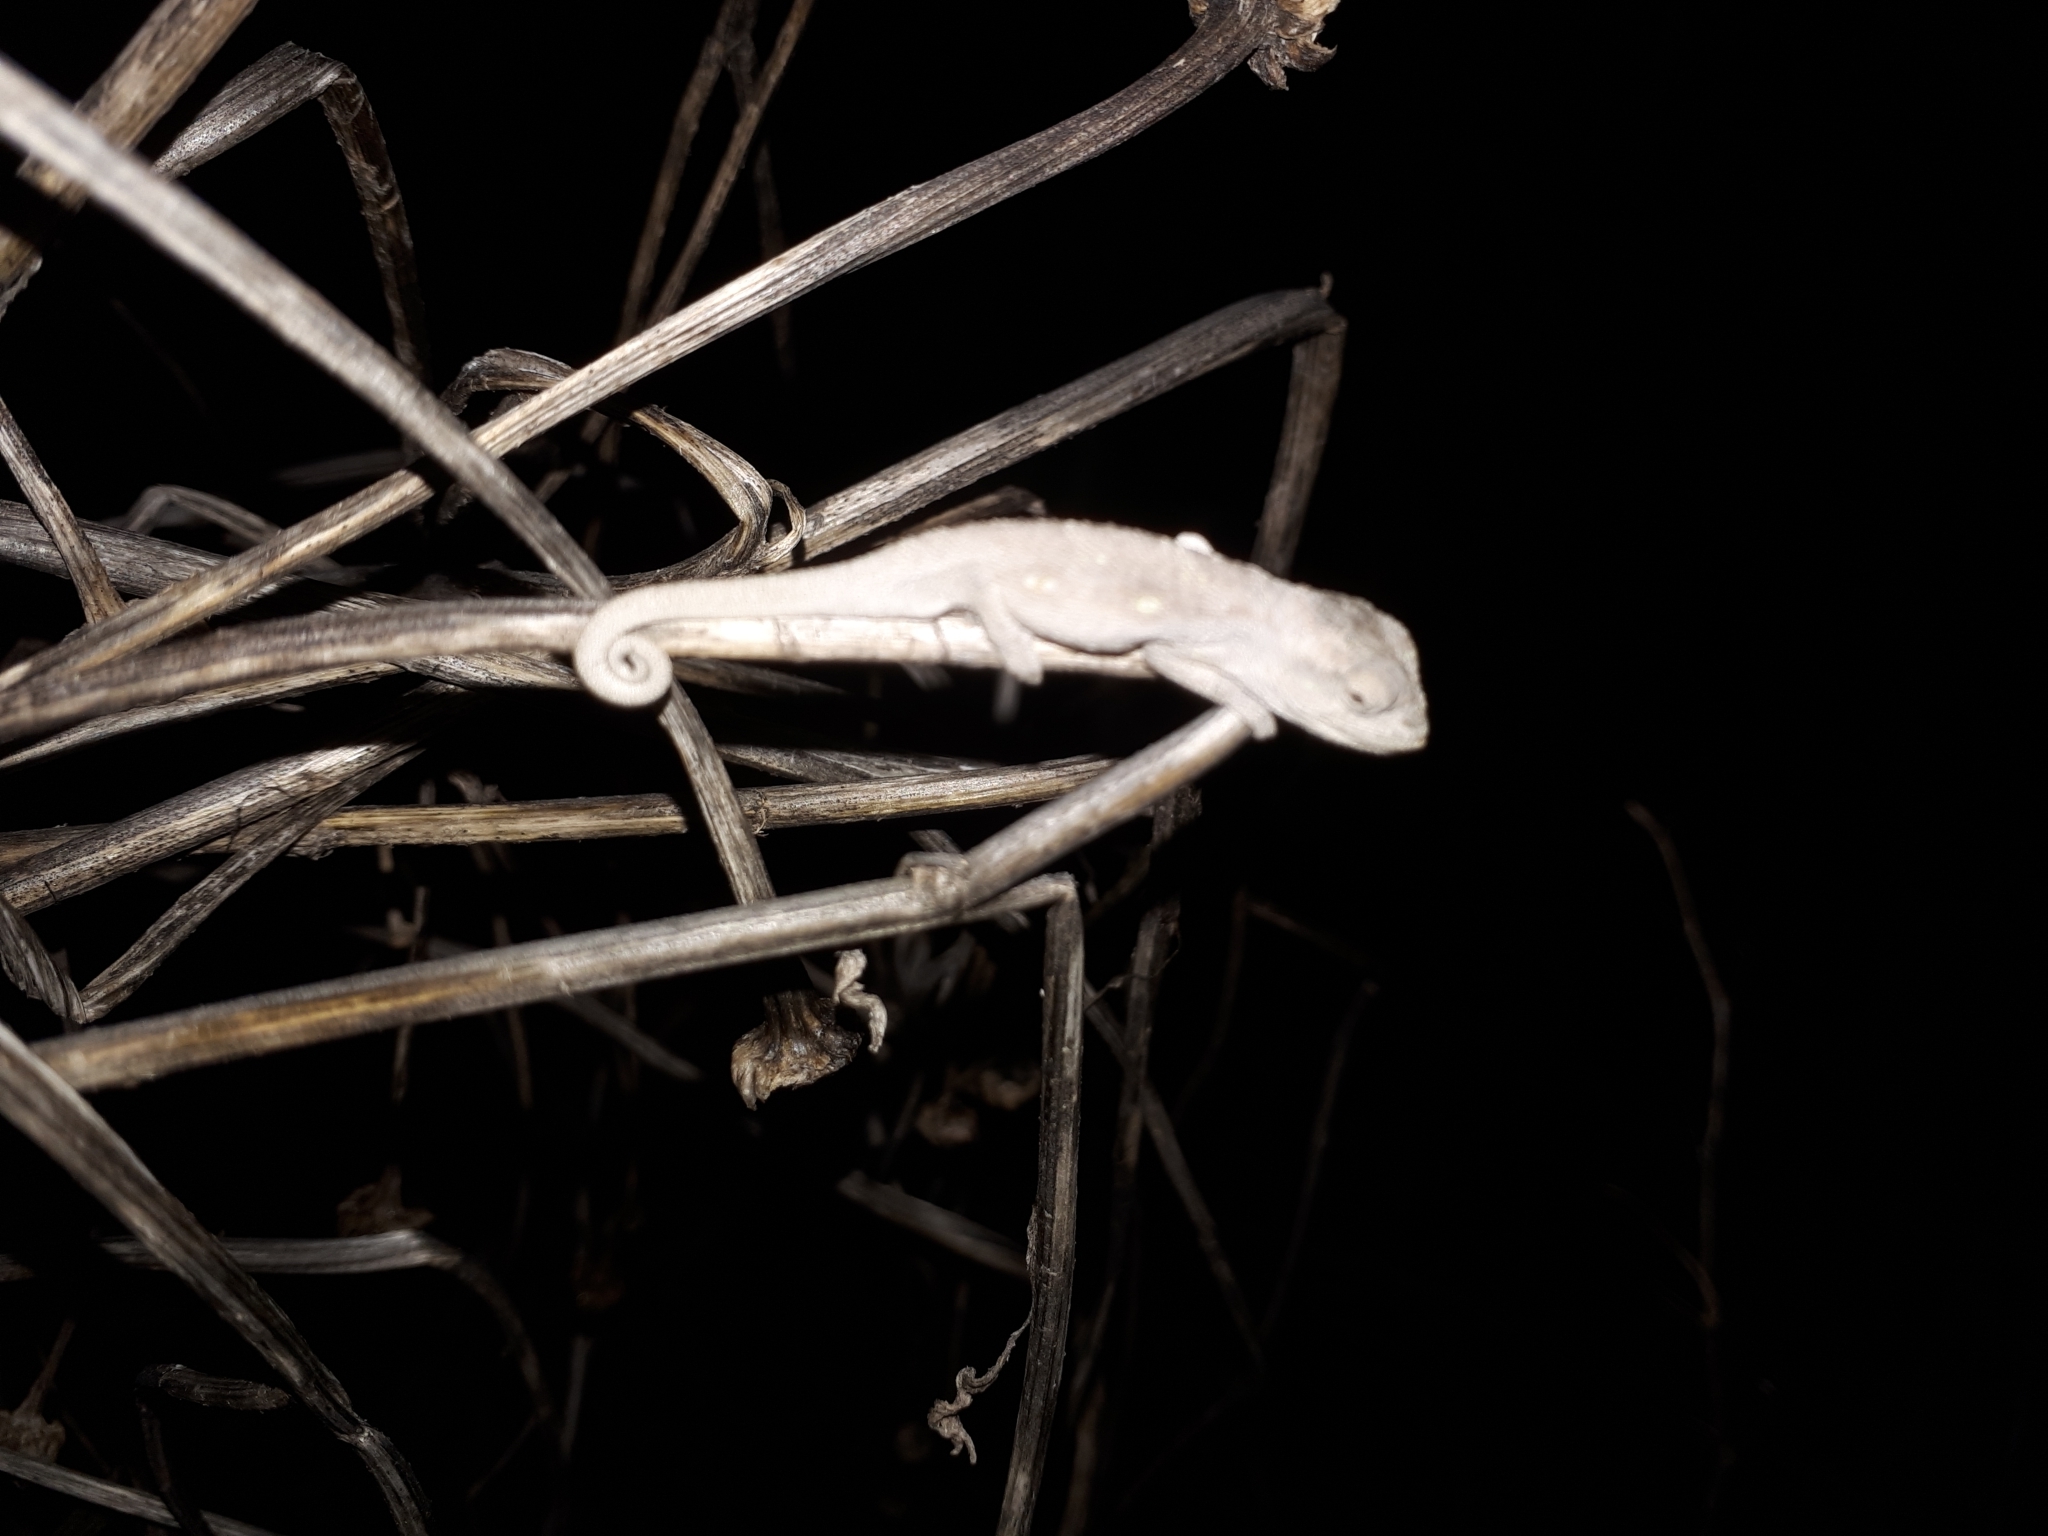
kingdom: Animalia
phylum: Chordata
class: Squamata
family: Chamaeleonidae
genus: Bradypodion
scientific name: Bradypodion pumilum
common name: Cape dwarf chameleon
